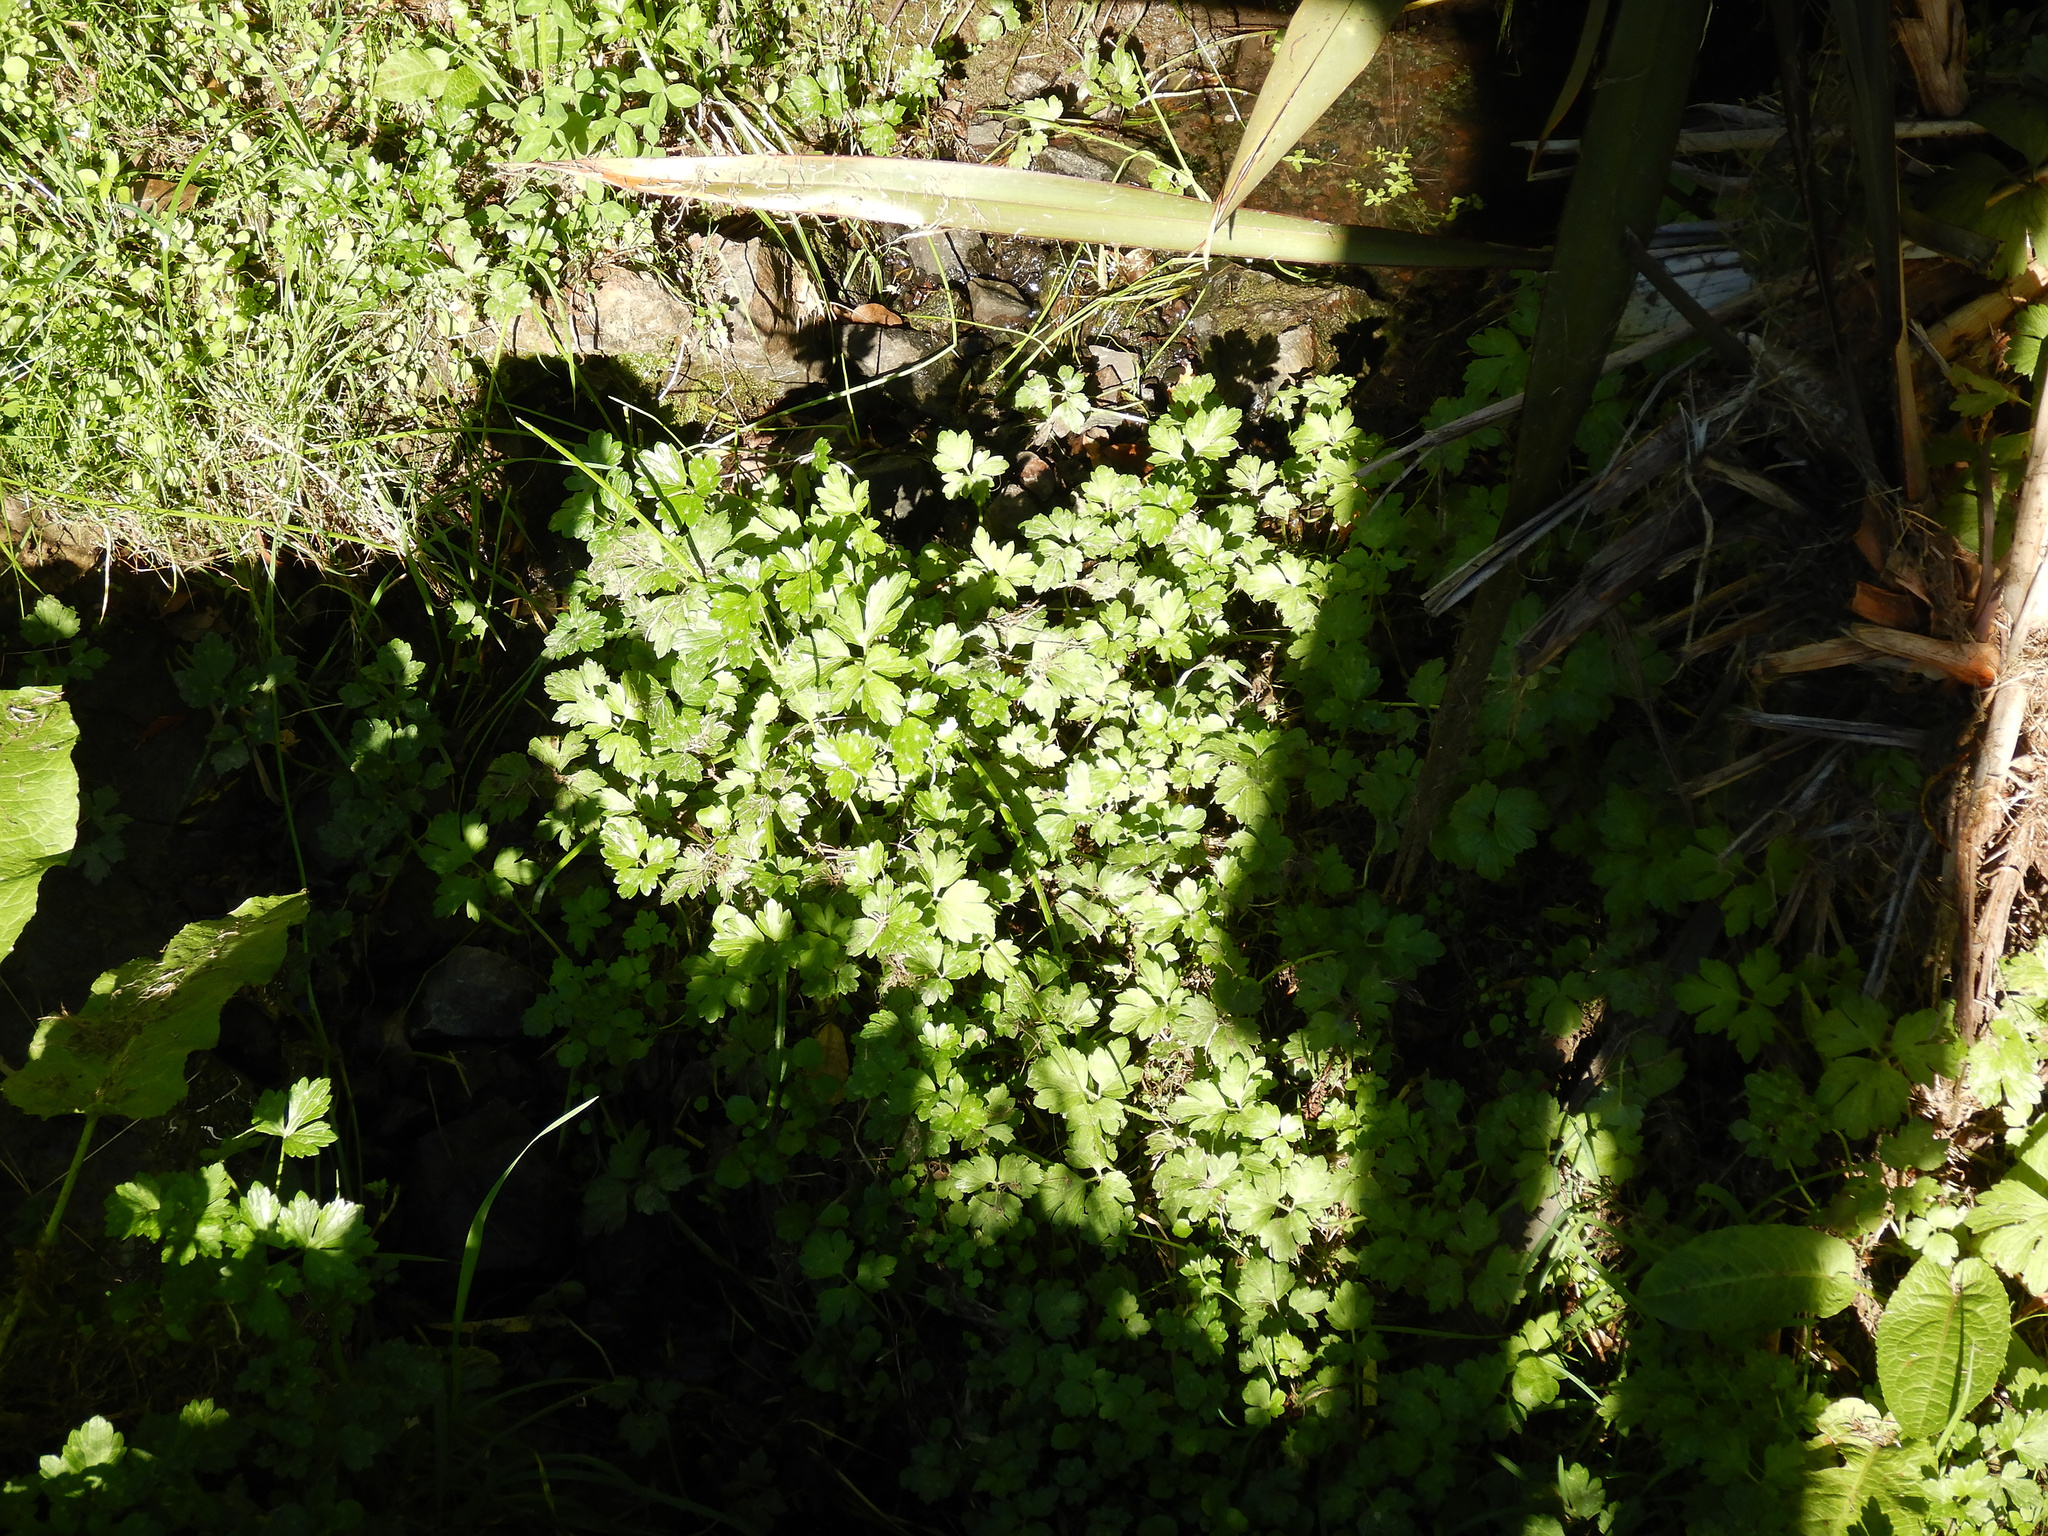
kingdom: Plantae
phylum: Tracheophyta
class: Magnoliopsida
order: Ranunculales
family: Ranunculaceae
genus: Ranunculus
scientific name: Ranunculus repens
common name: Creeping buttercup
